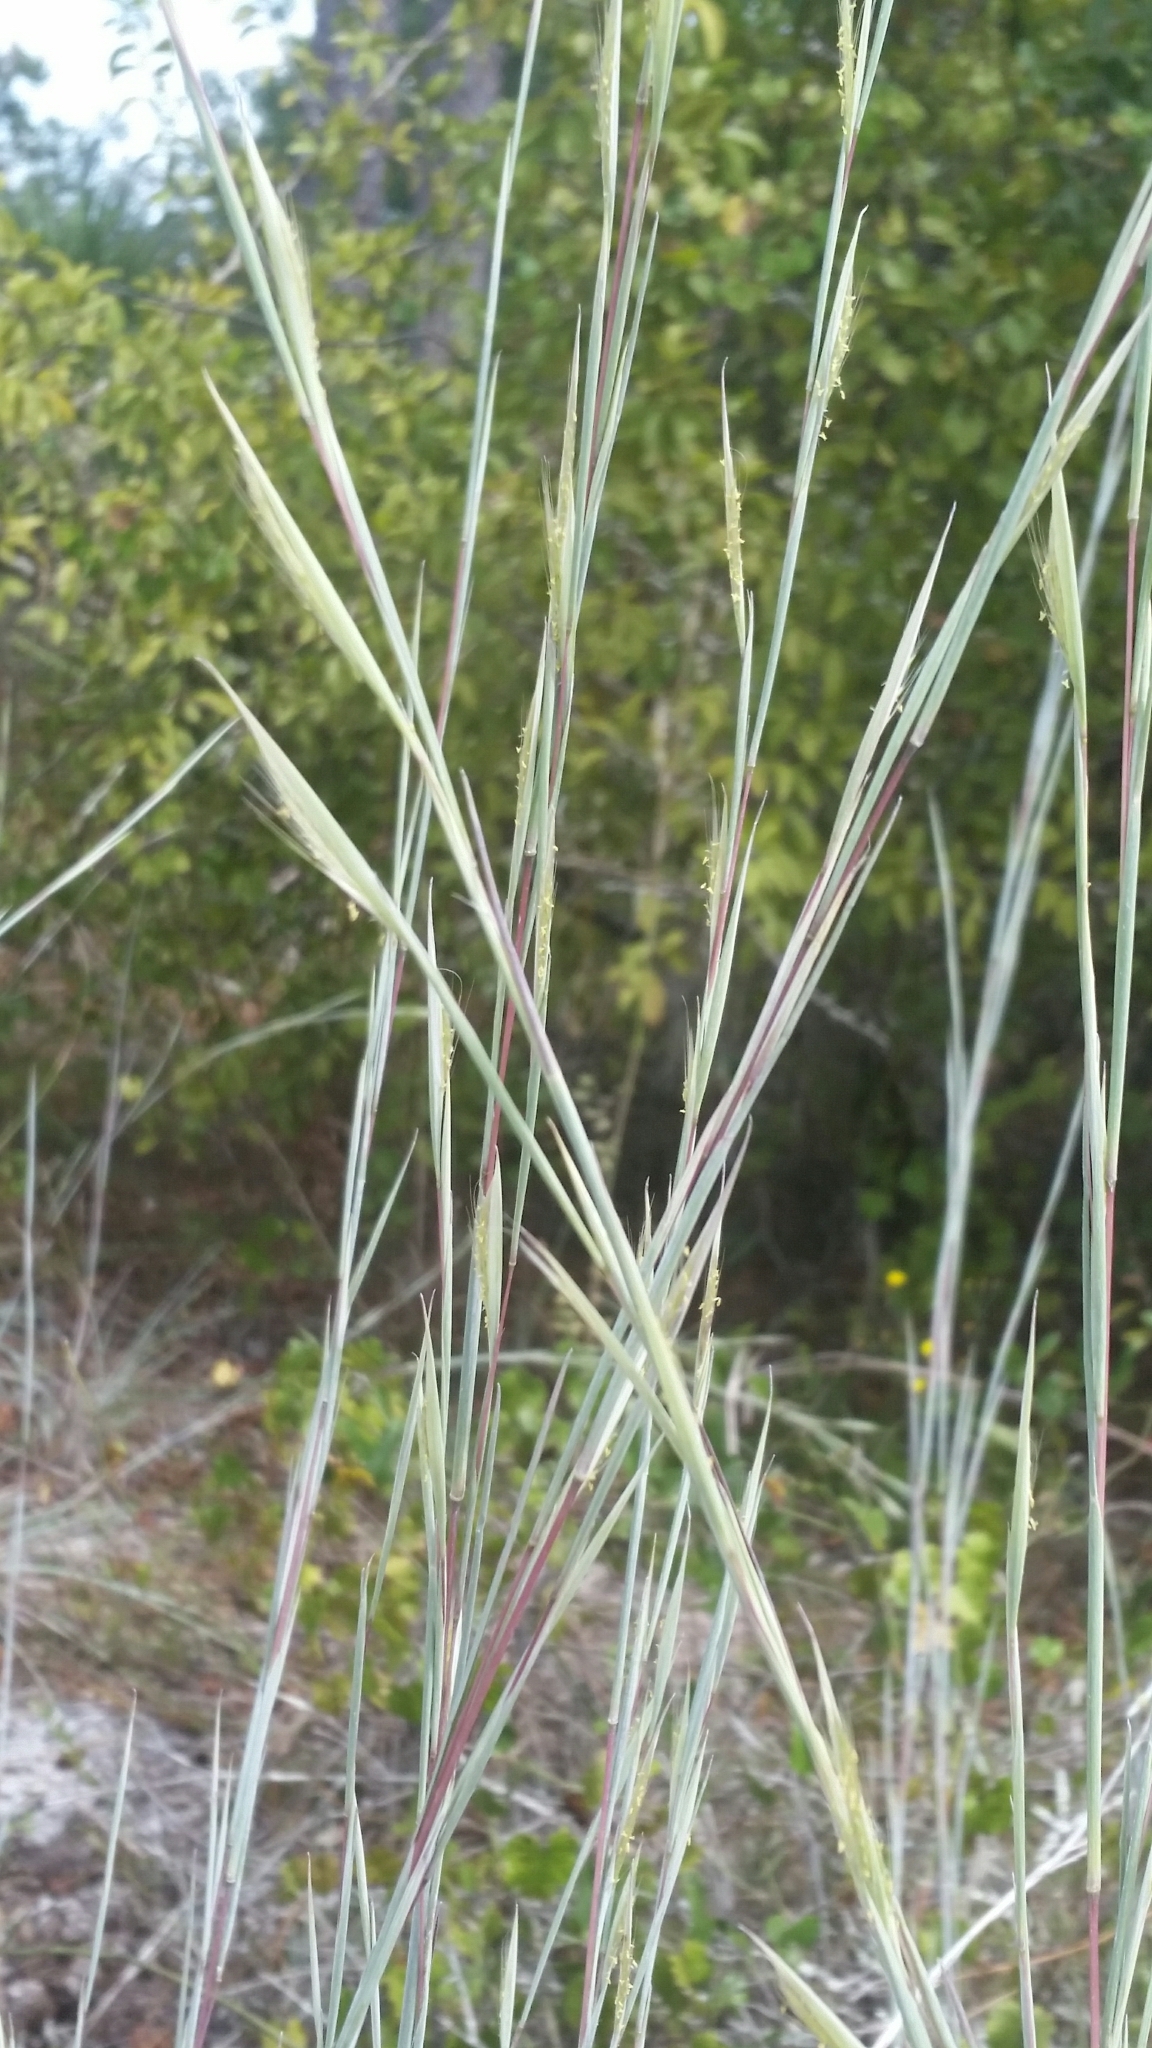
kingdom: Plantae
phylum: Tracheophyta
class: Liliopsida
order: Poales
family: Poaceae
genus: Andropogon
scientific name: Andropogon capillipes
